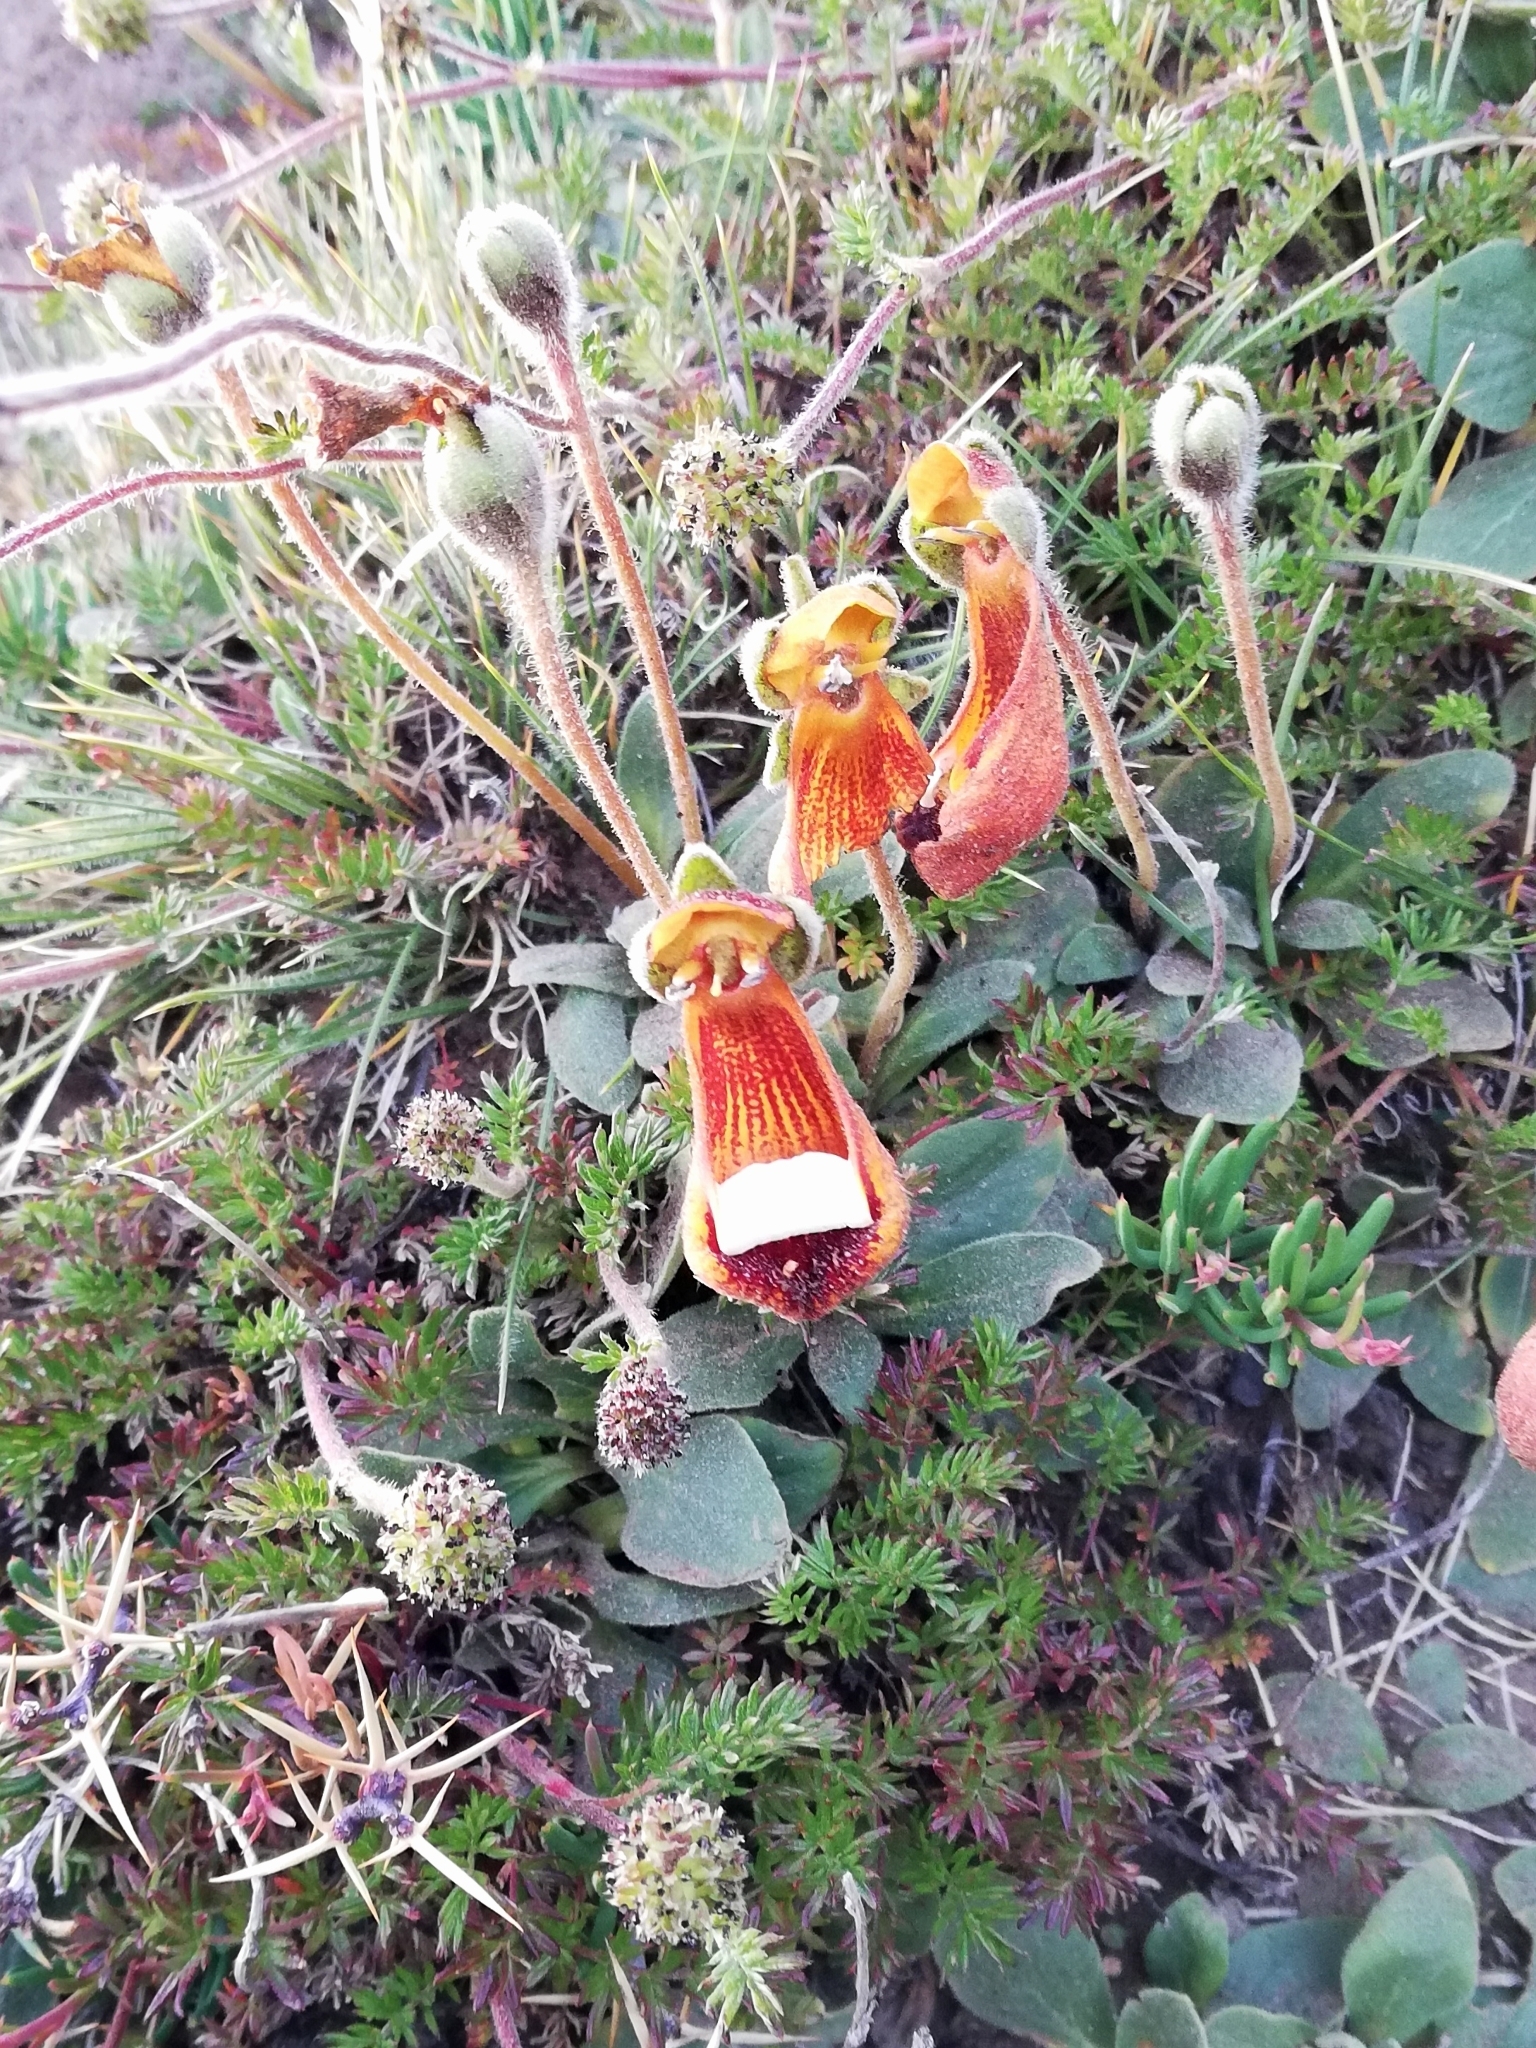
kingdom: Plantae
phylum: Tracheophyta
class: Magnoliopsida
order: Lamiales
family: Calceolariaceae
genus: Calceolaria
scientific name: Calceolaria uniflora
